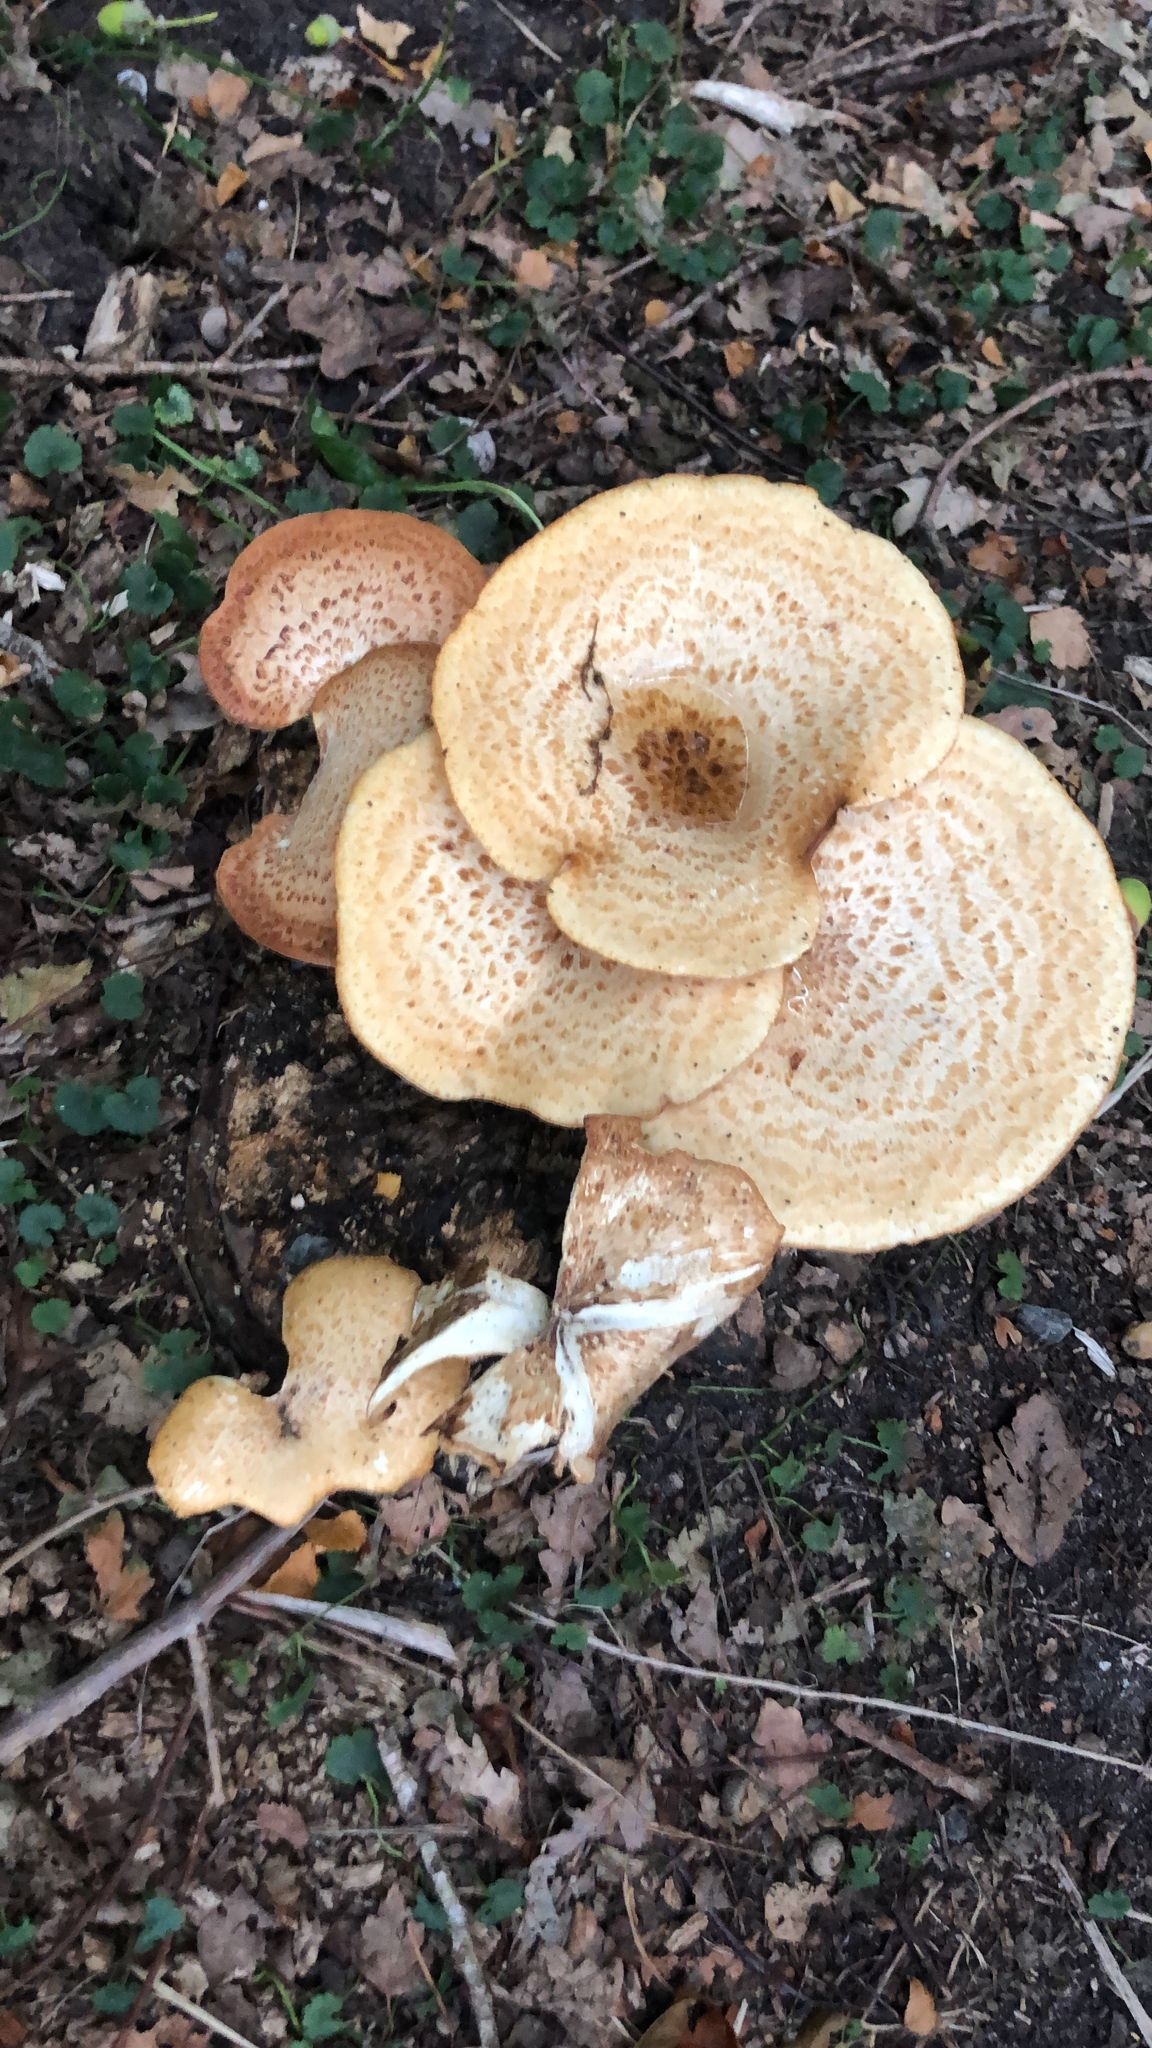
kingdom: Fungi
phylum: Basidiomycota
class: Agaricomycetes
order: Polyporales
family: Polyporaceae
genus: Cerioporus
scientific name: Cerioporus squamosus
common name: Dryad's saddle
